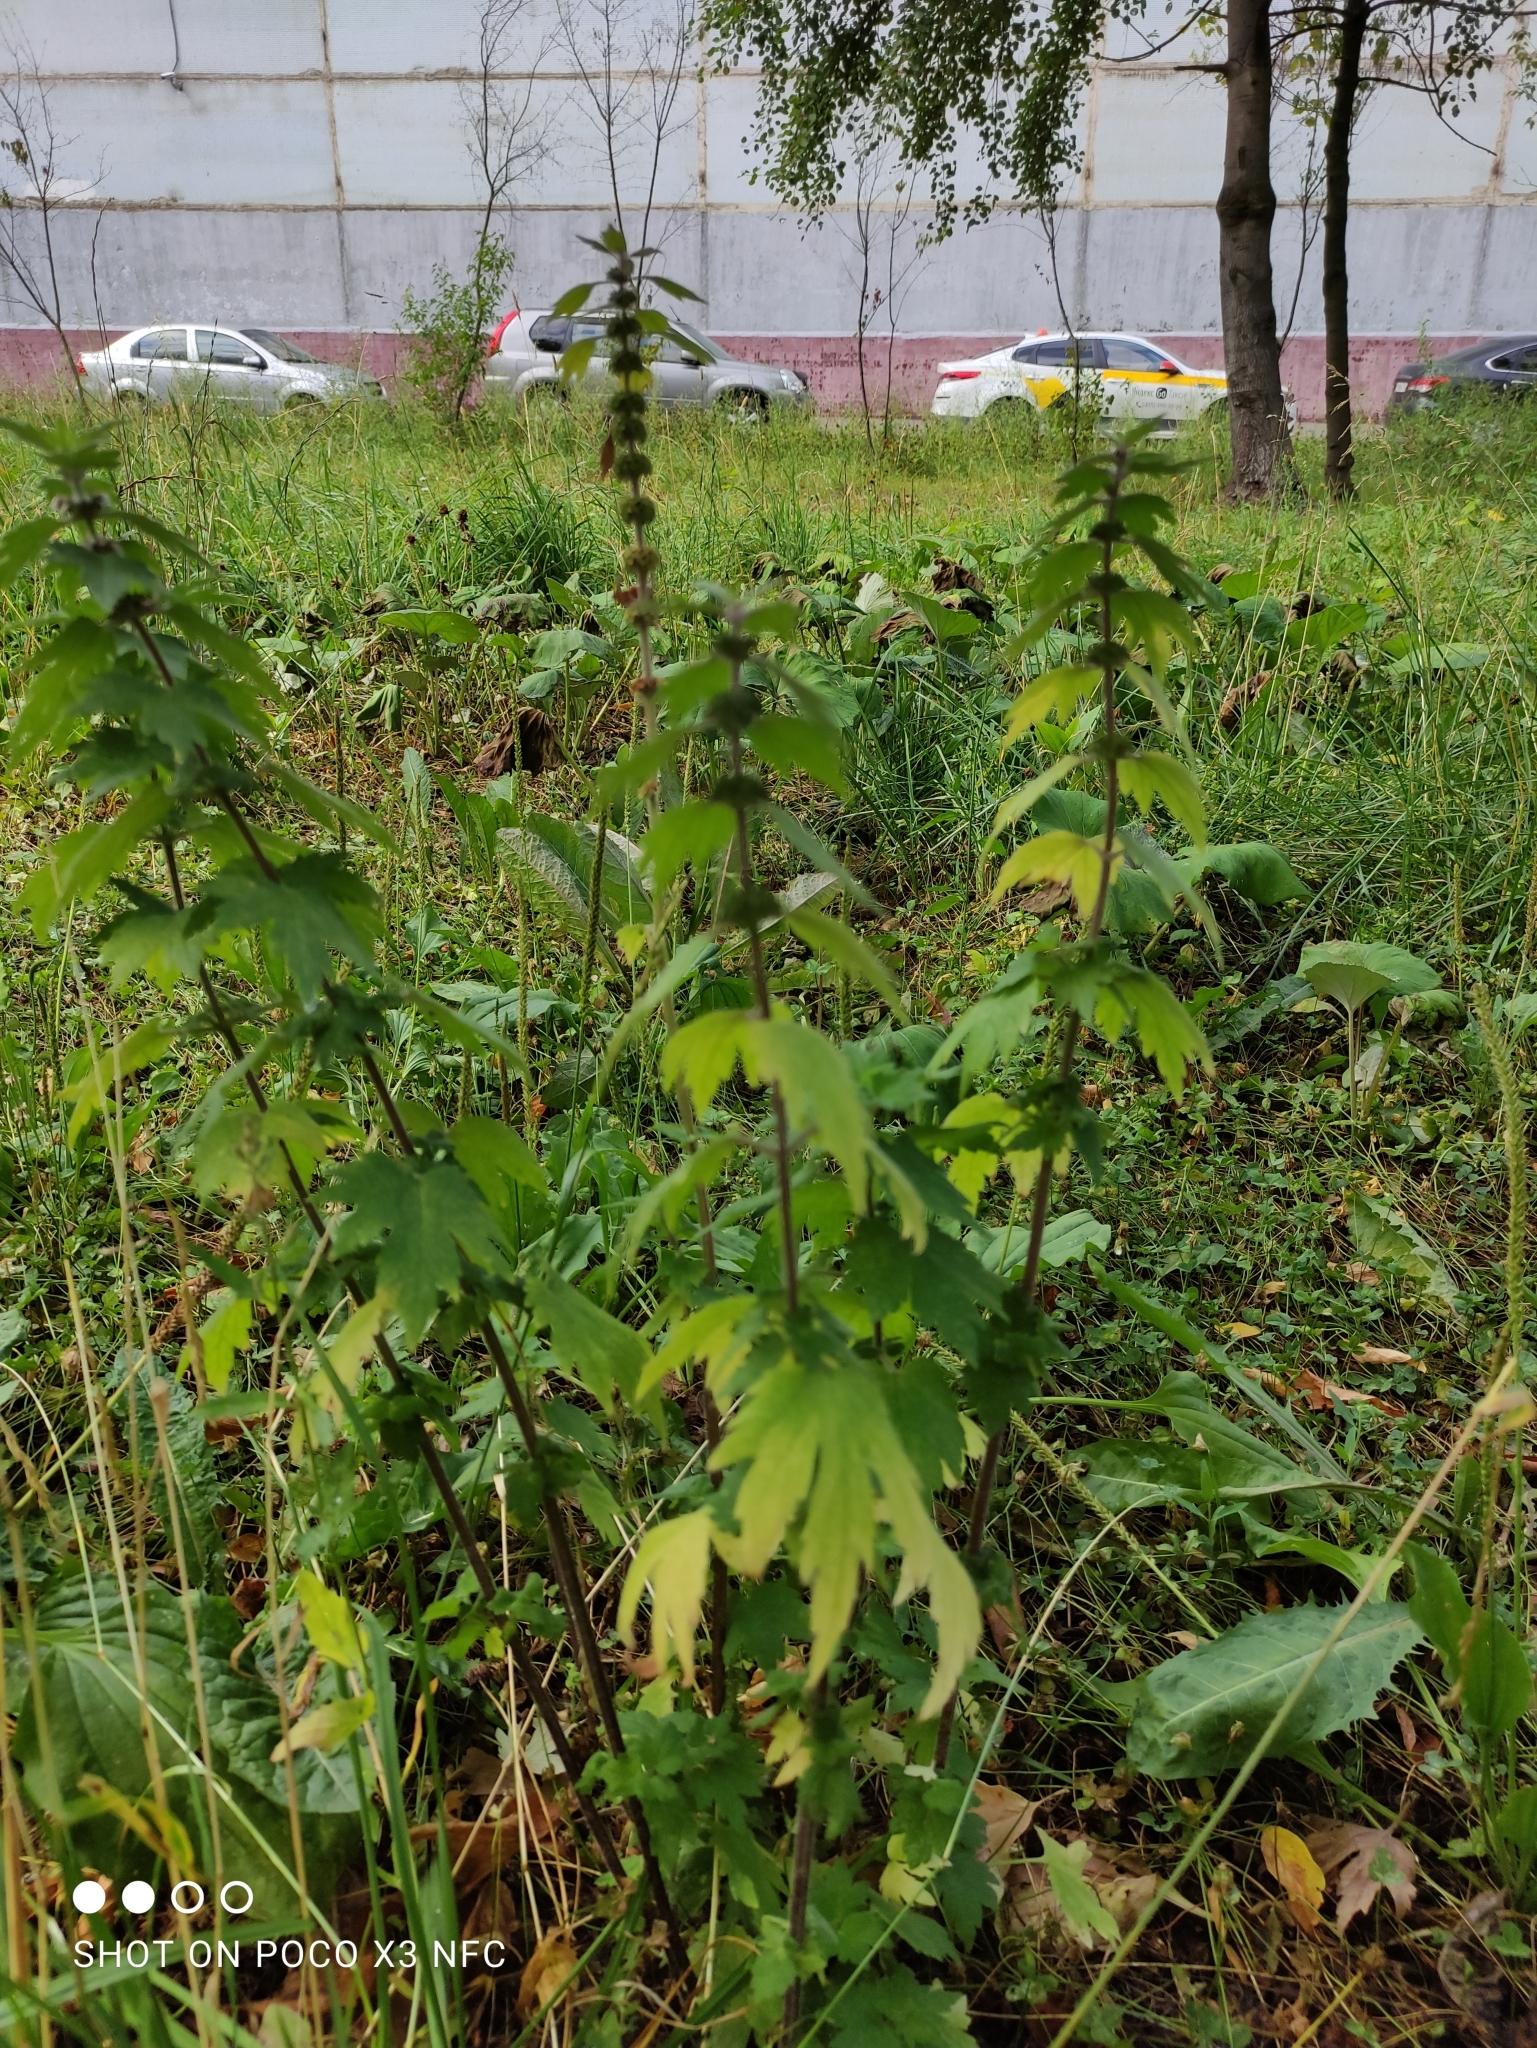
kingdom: Plantae
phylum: Tracheophyta
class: Magnoliopsida
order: Lamiales
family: Lamiaceae
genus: Leonurus
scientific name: Leonurus quinquelobatus
